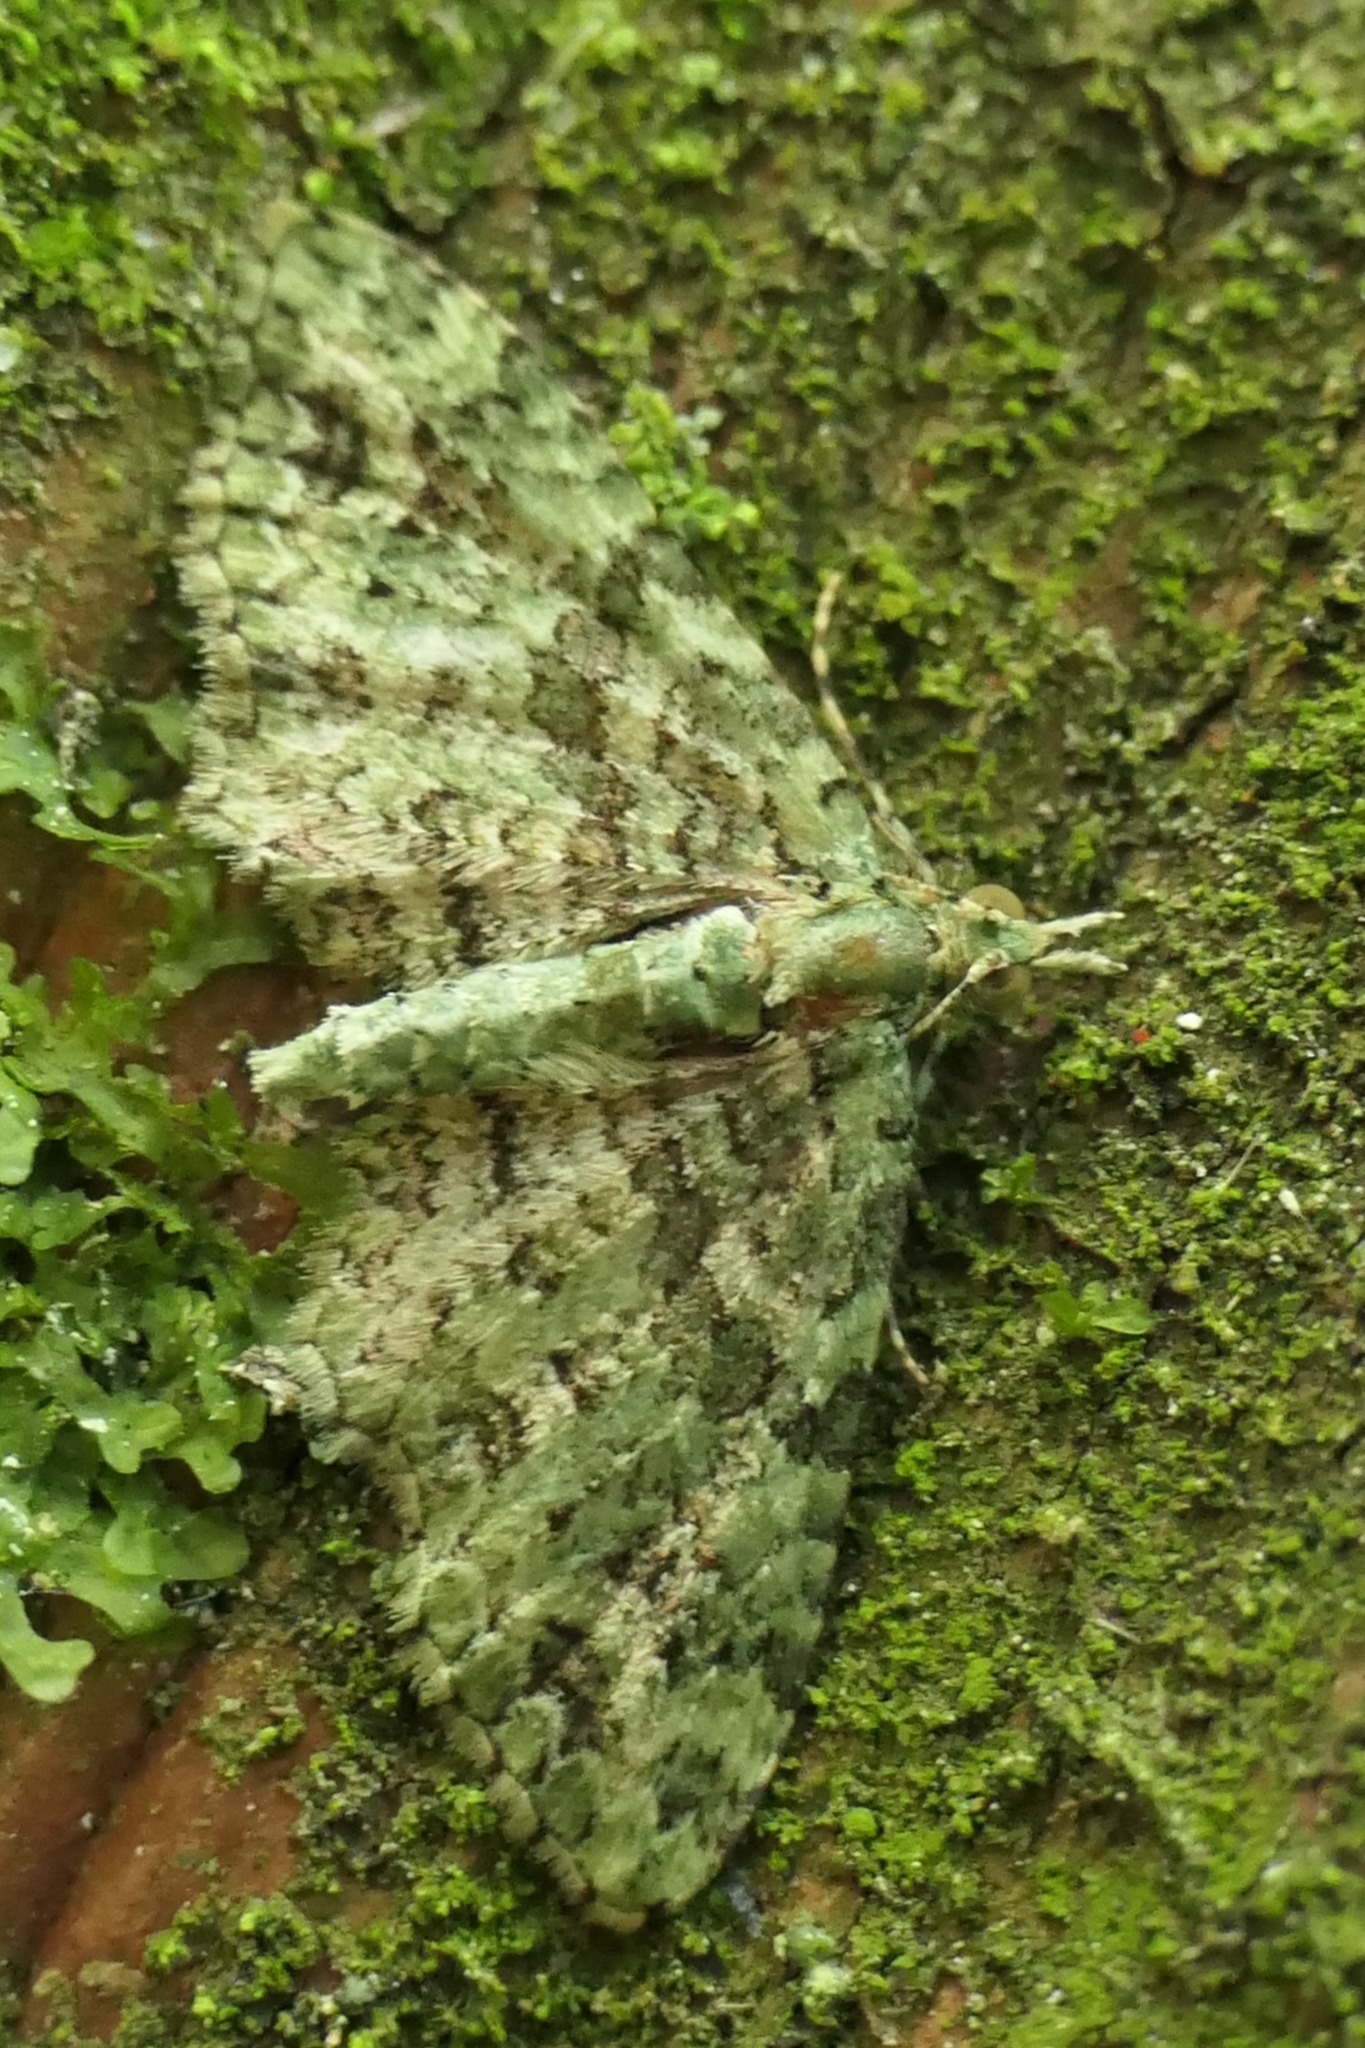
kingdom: Animalia
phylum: Arthropoda
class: Insecta
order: Lepidoptera
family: Geometridae
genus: Pasiphila
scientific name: Pasiphila muscosata
